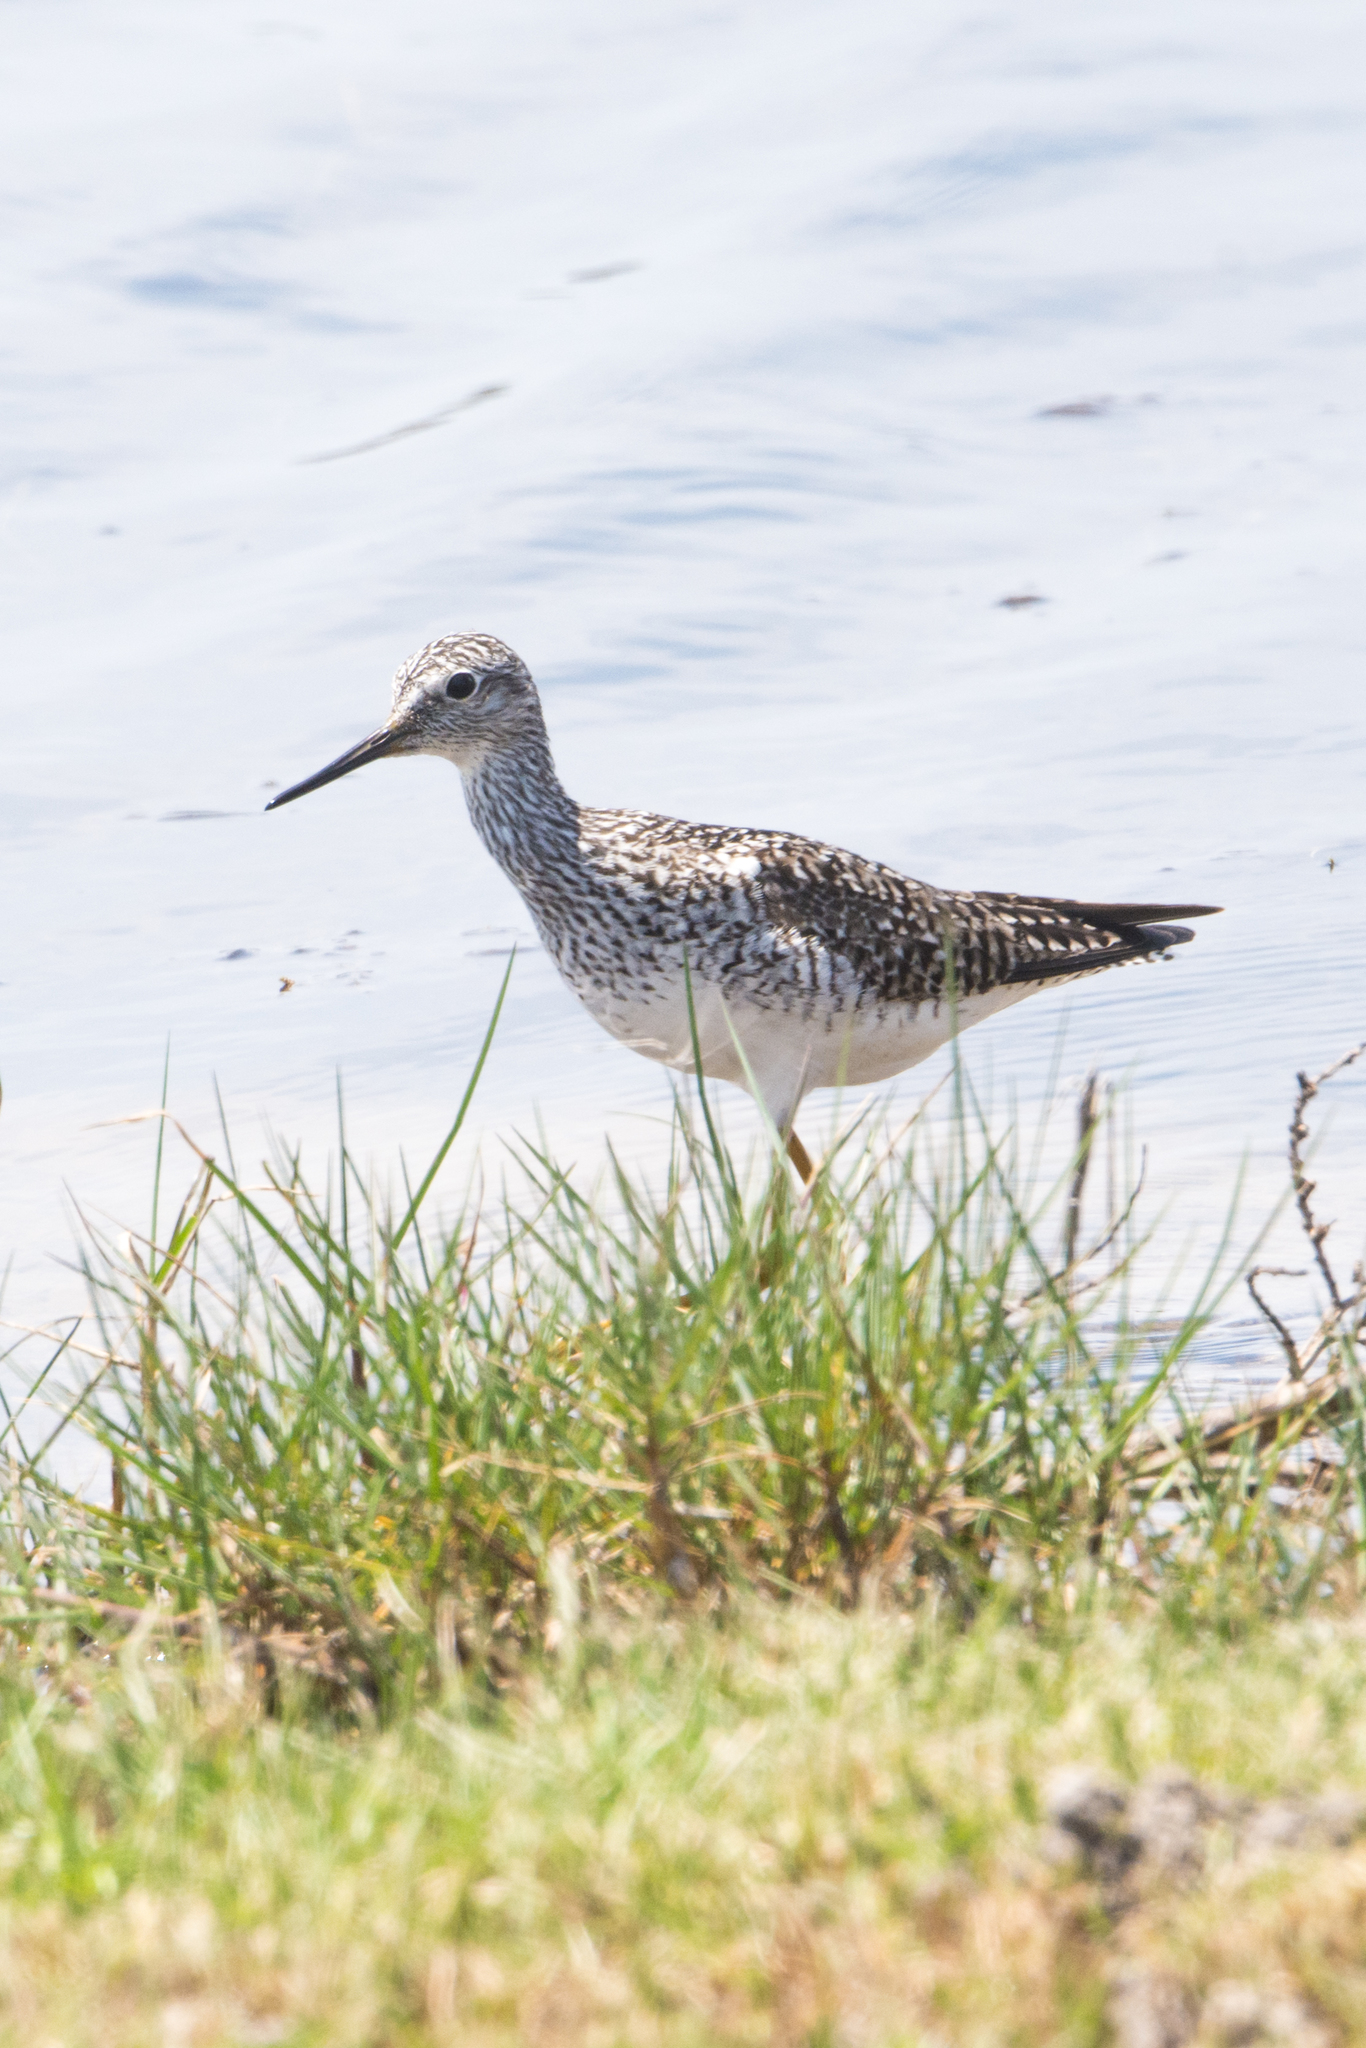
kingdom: Animalia
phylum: Chordata
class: Aves
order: Charadriiformes
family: Scolopacidae
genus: Tringa
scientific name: Tringa flavipes
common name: Lesser yellowlegs
